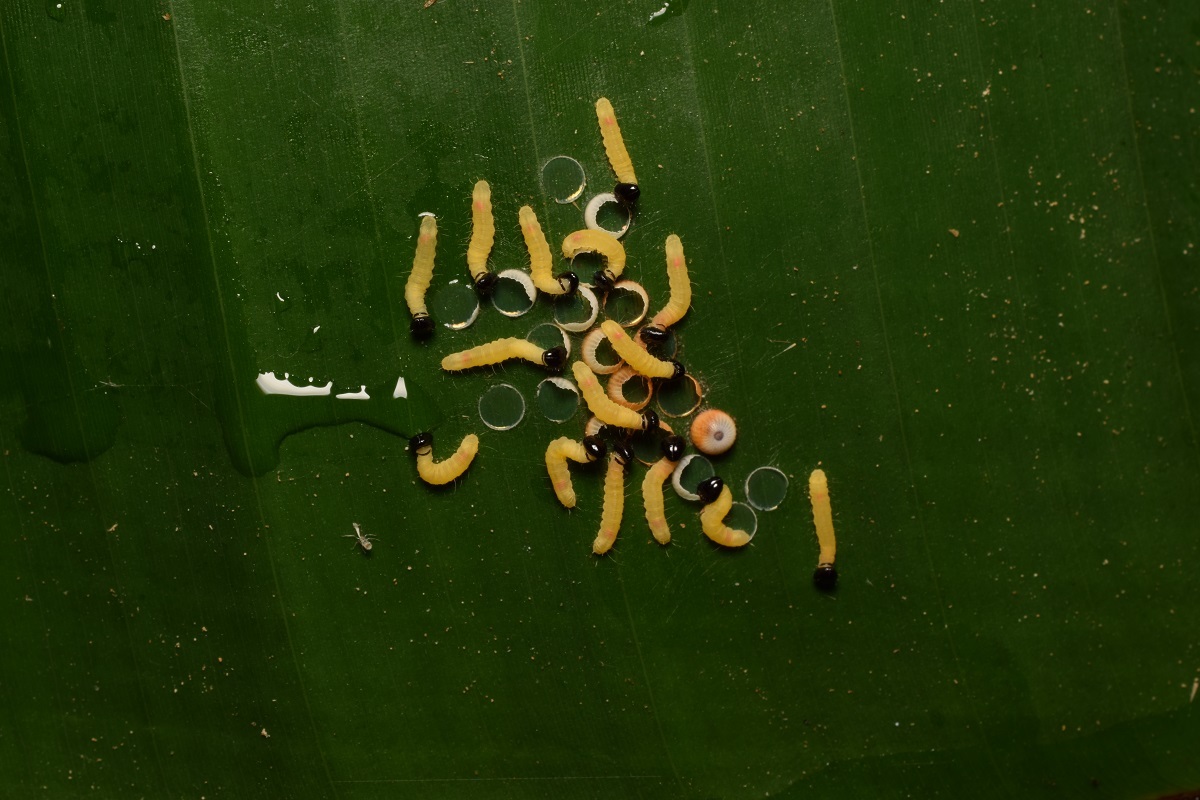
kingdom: Animalia
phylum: Arthropoda
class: Insecta
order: Lepidoptera
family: Hesperiidae
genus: Erionota
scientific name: Erionota torus
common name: Rounded palm-redeye
